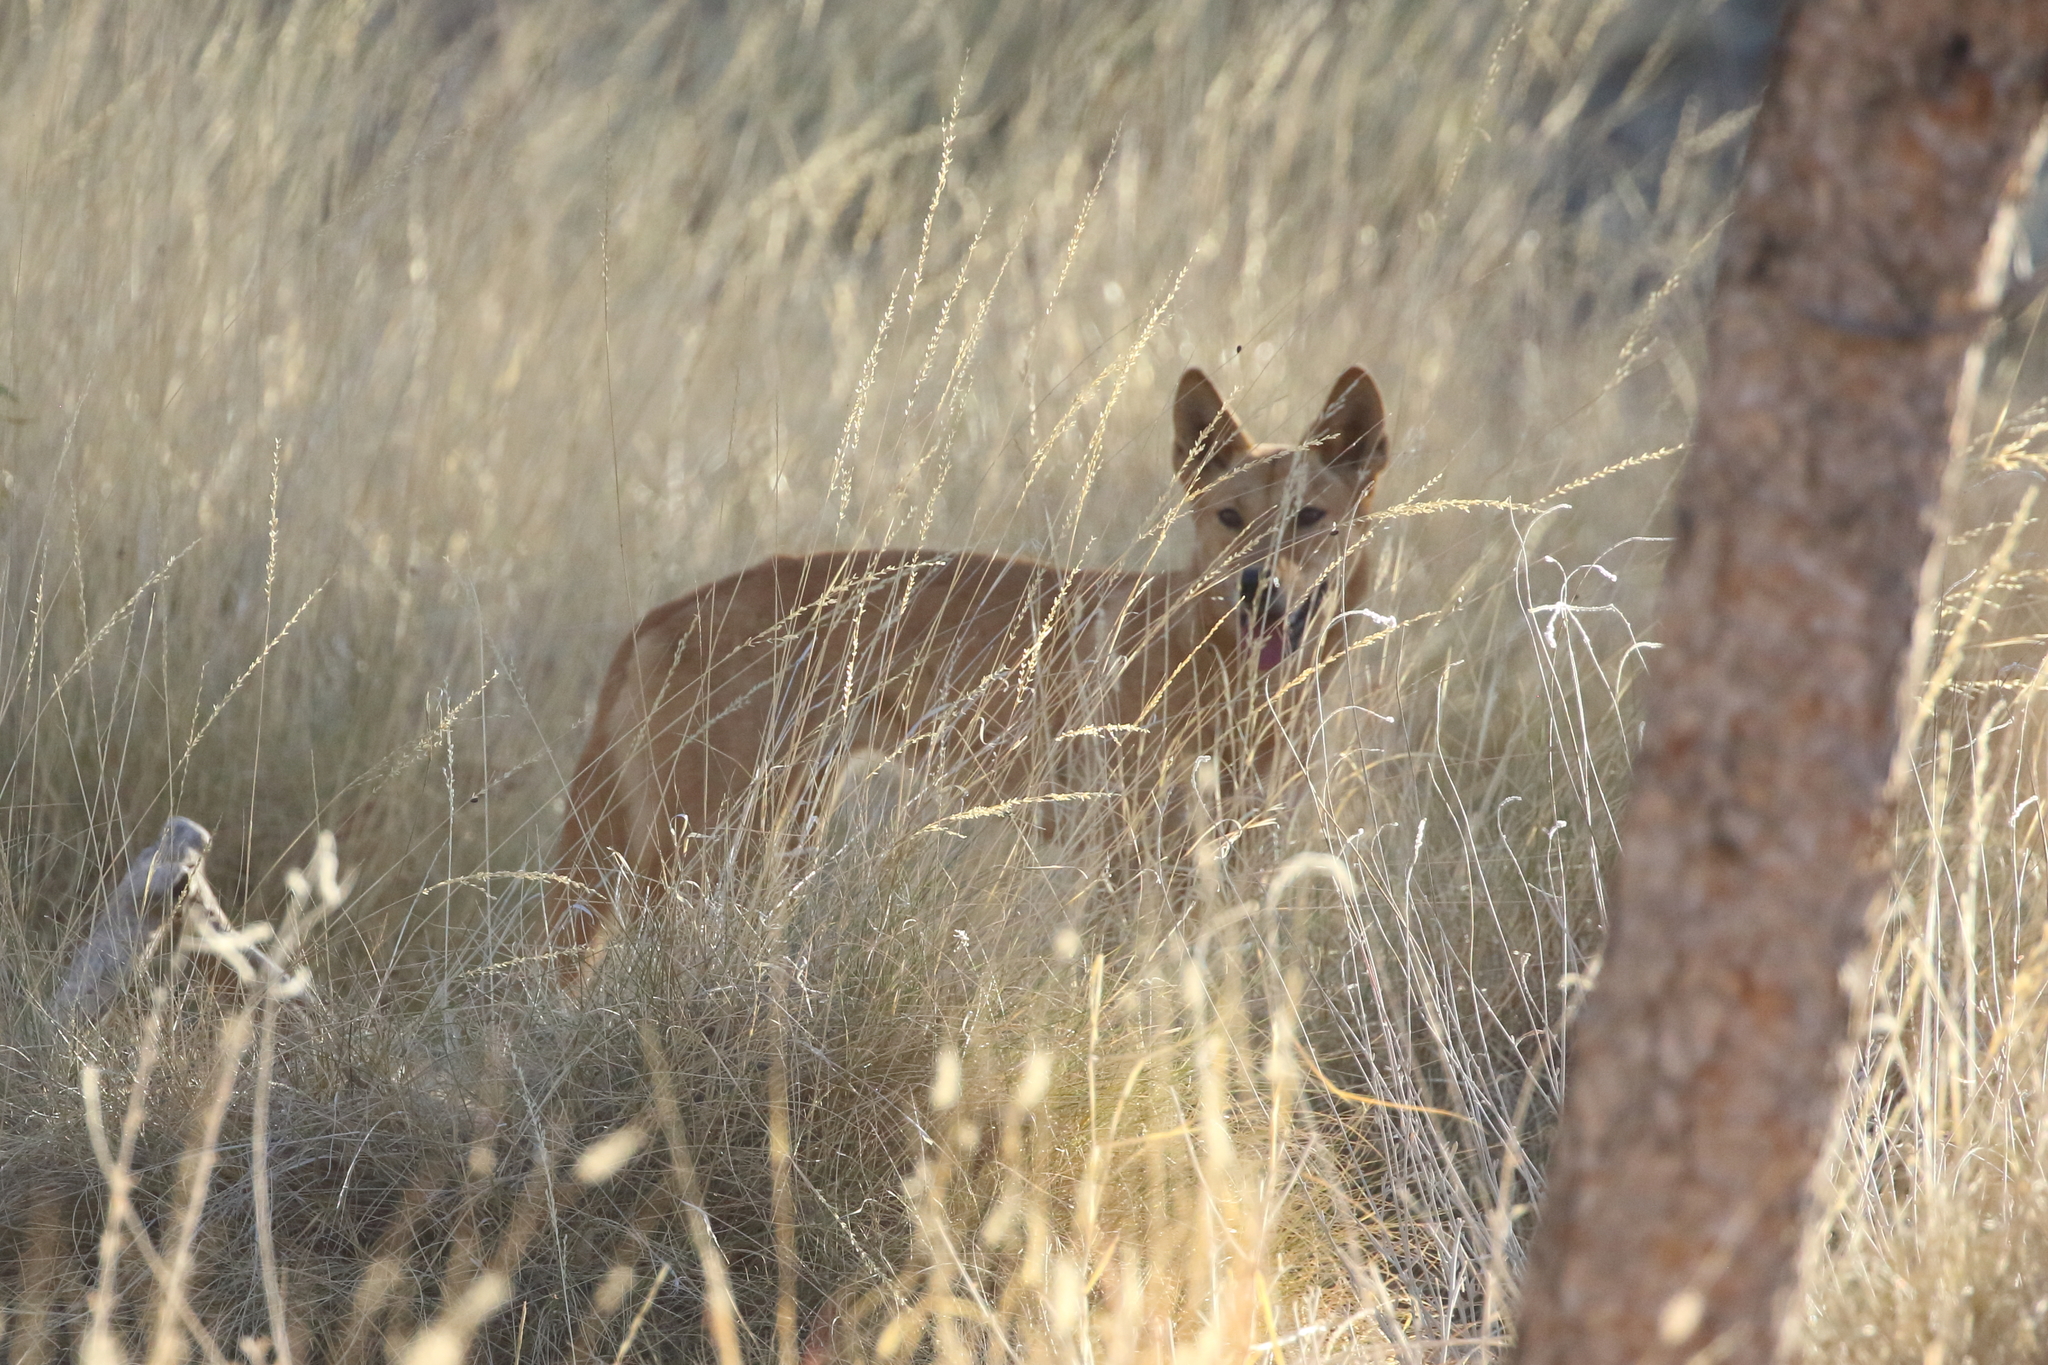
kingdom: Animalia
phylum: Chordata
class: Mammalia
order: Carnivora
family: Canidae
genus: Canis
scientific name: Canis lupus
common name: Gray wolf
